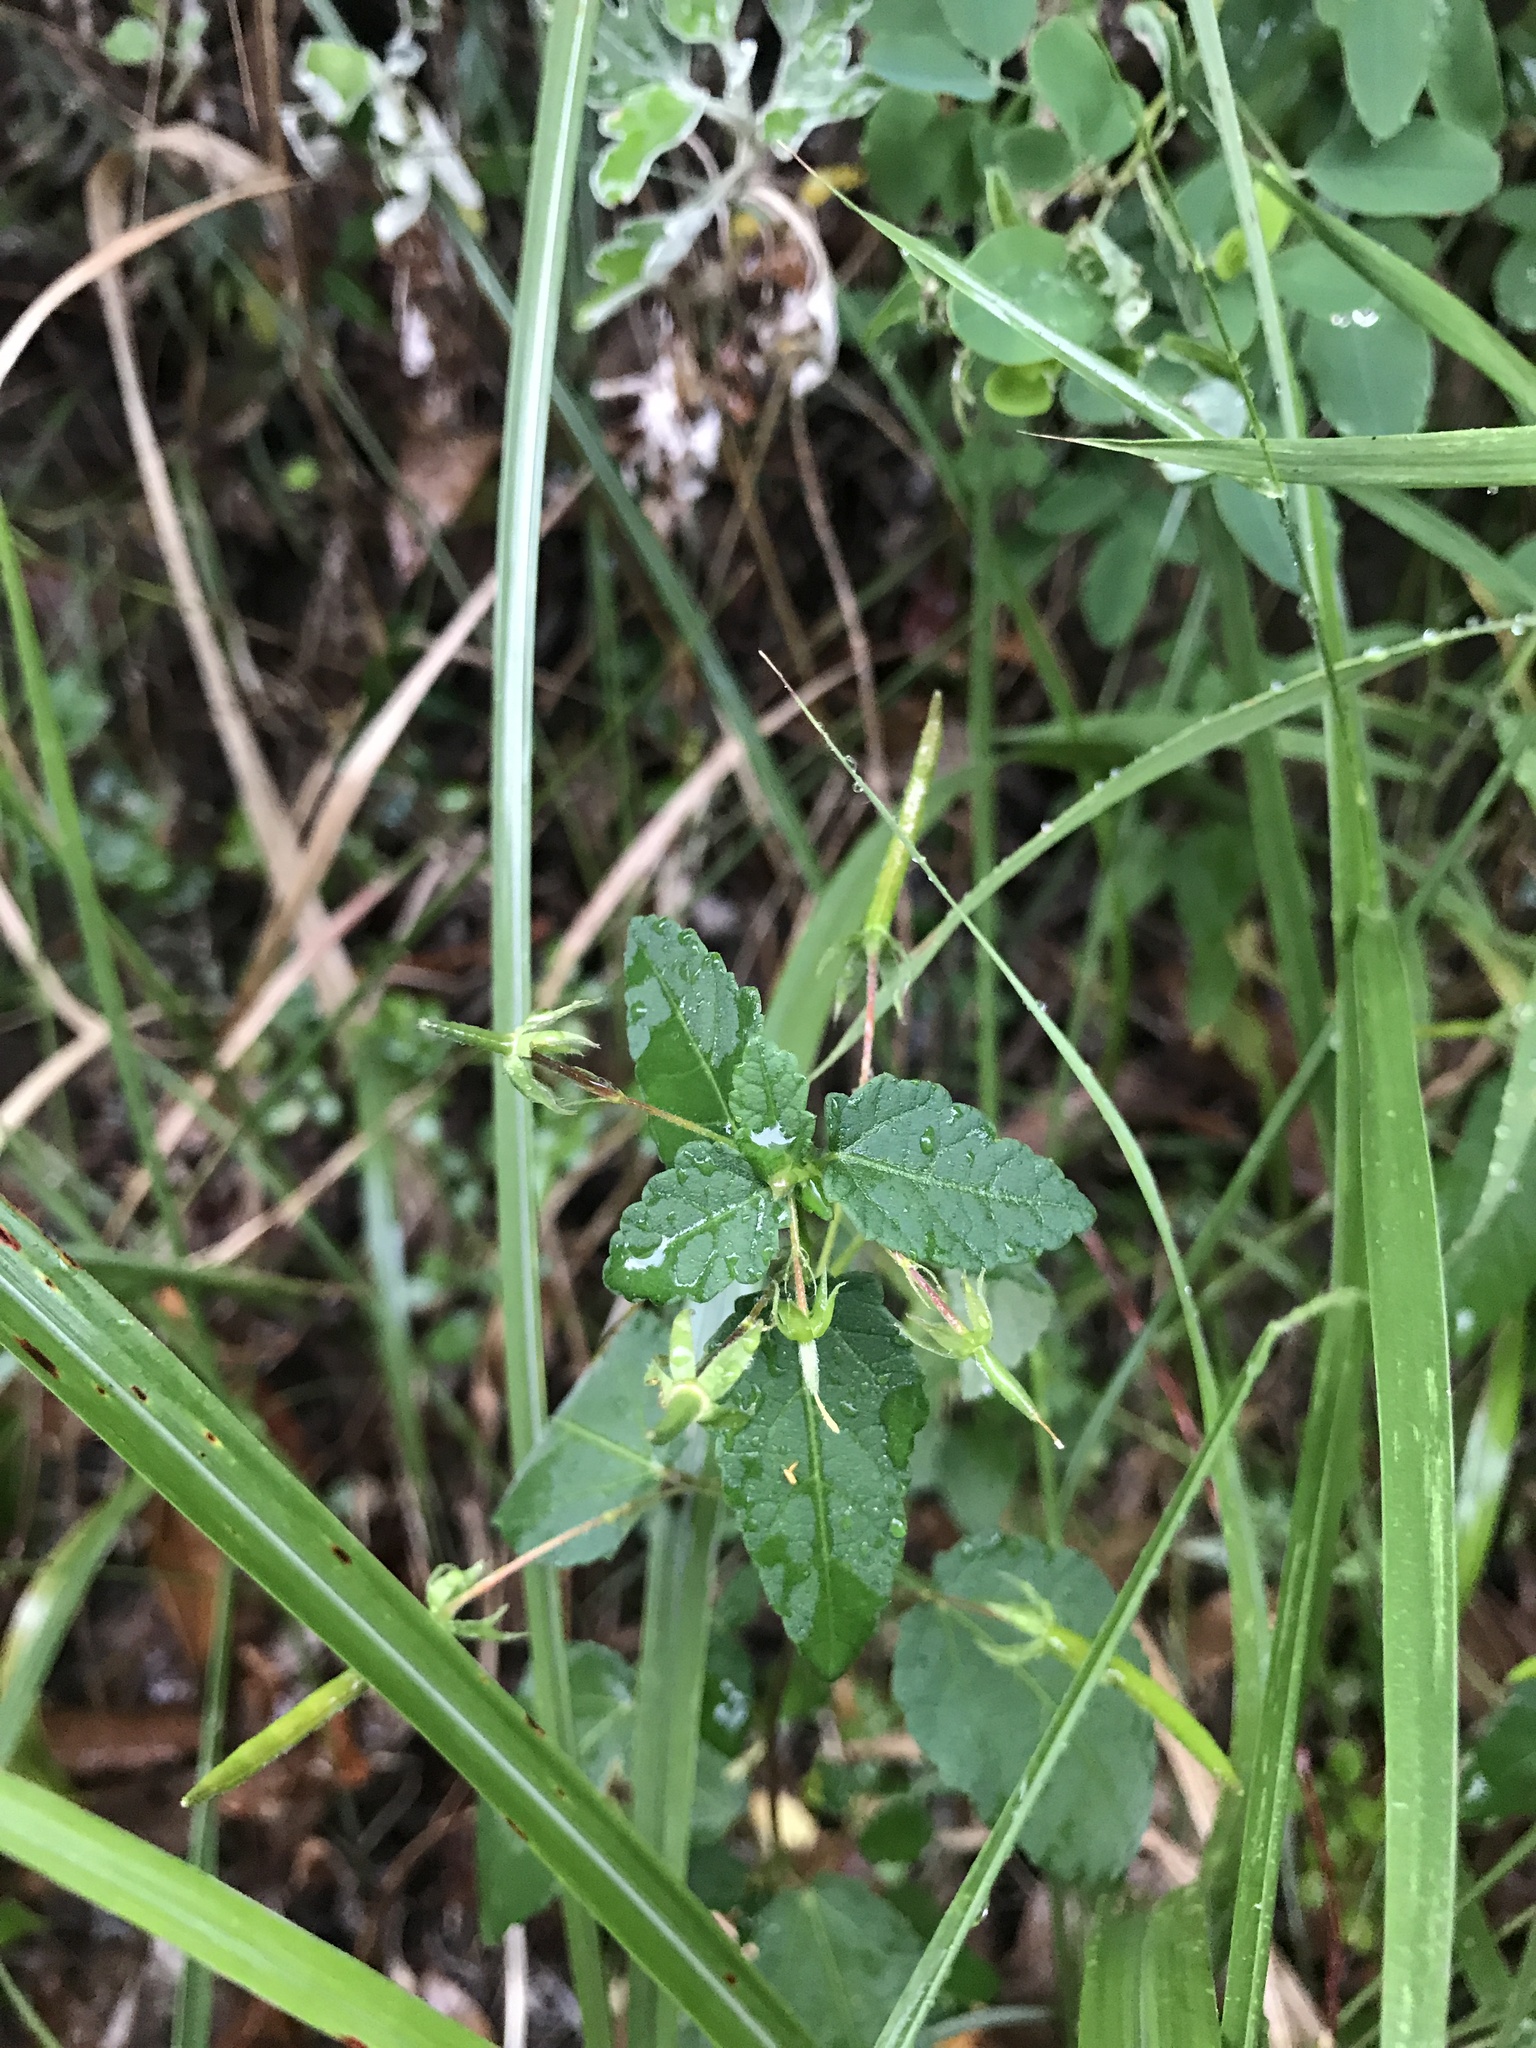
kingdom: Plantae
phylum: Tracheophyta
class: Magnoliopsida
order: Malvales
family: Malvaceae
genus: Corchoropsis
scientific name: Corchoropsis crenata
